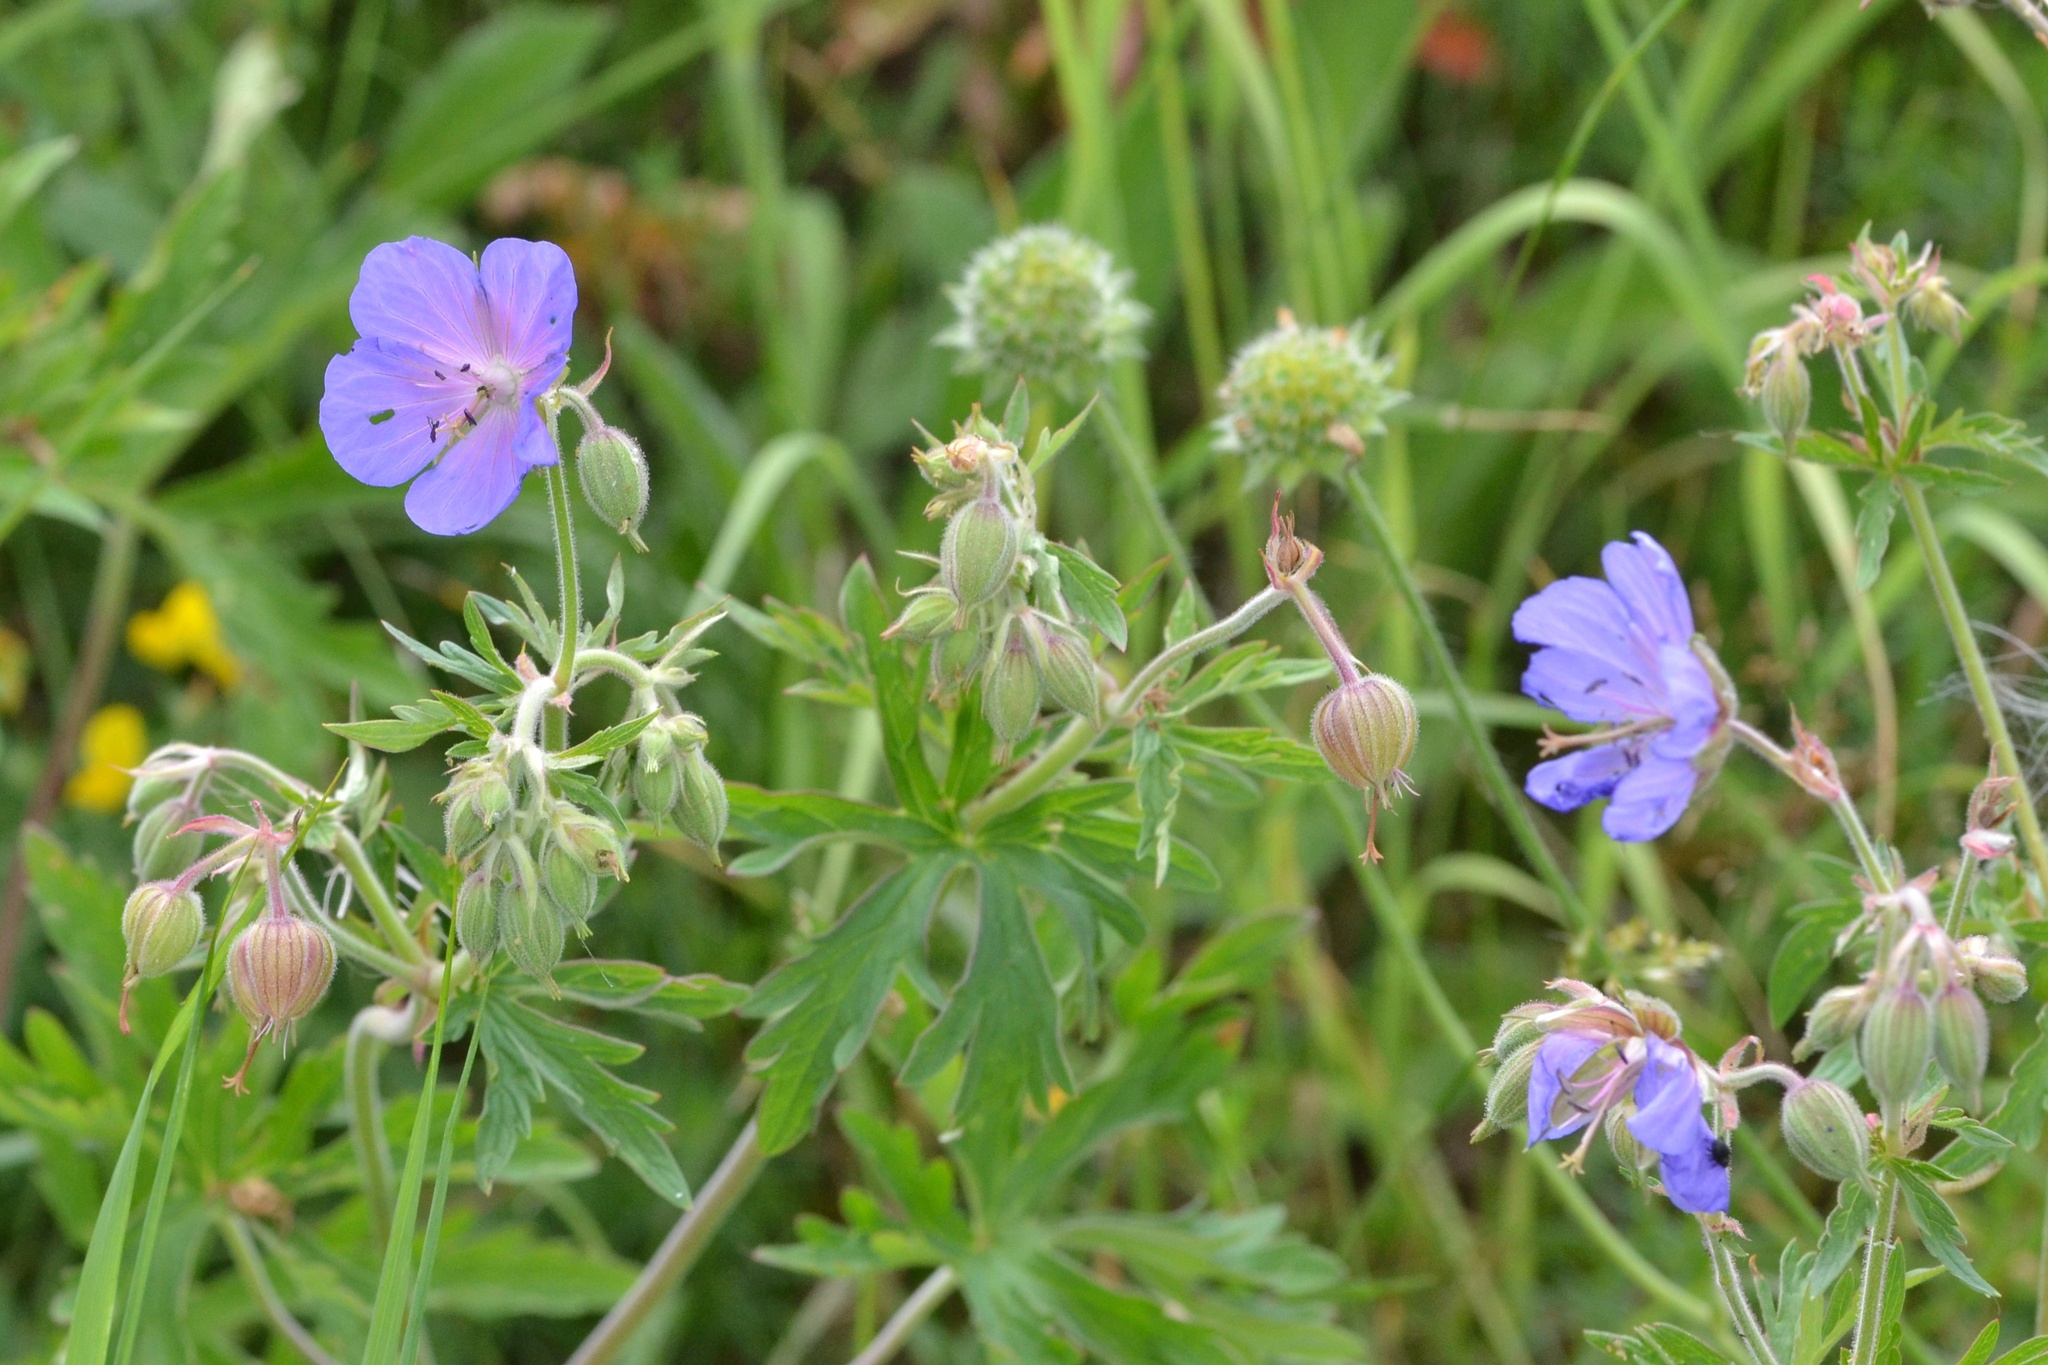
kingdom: Plantae
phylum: Tracheophyta
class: Magnoliopsida
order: Geraniales
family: Geraniaceae
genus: Geranium
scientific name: Geranium pratense
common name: Meadow crane's-bill
